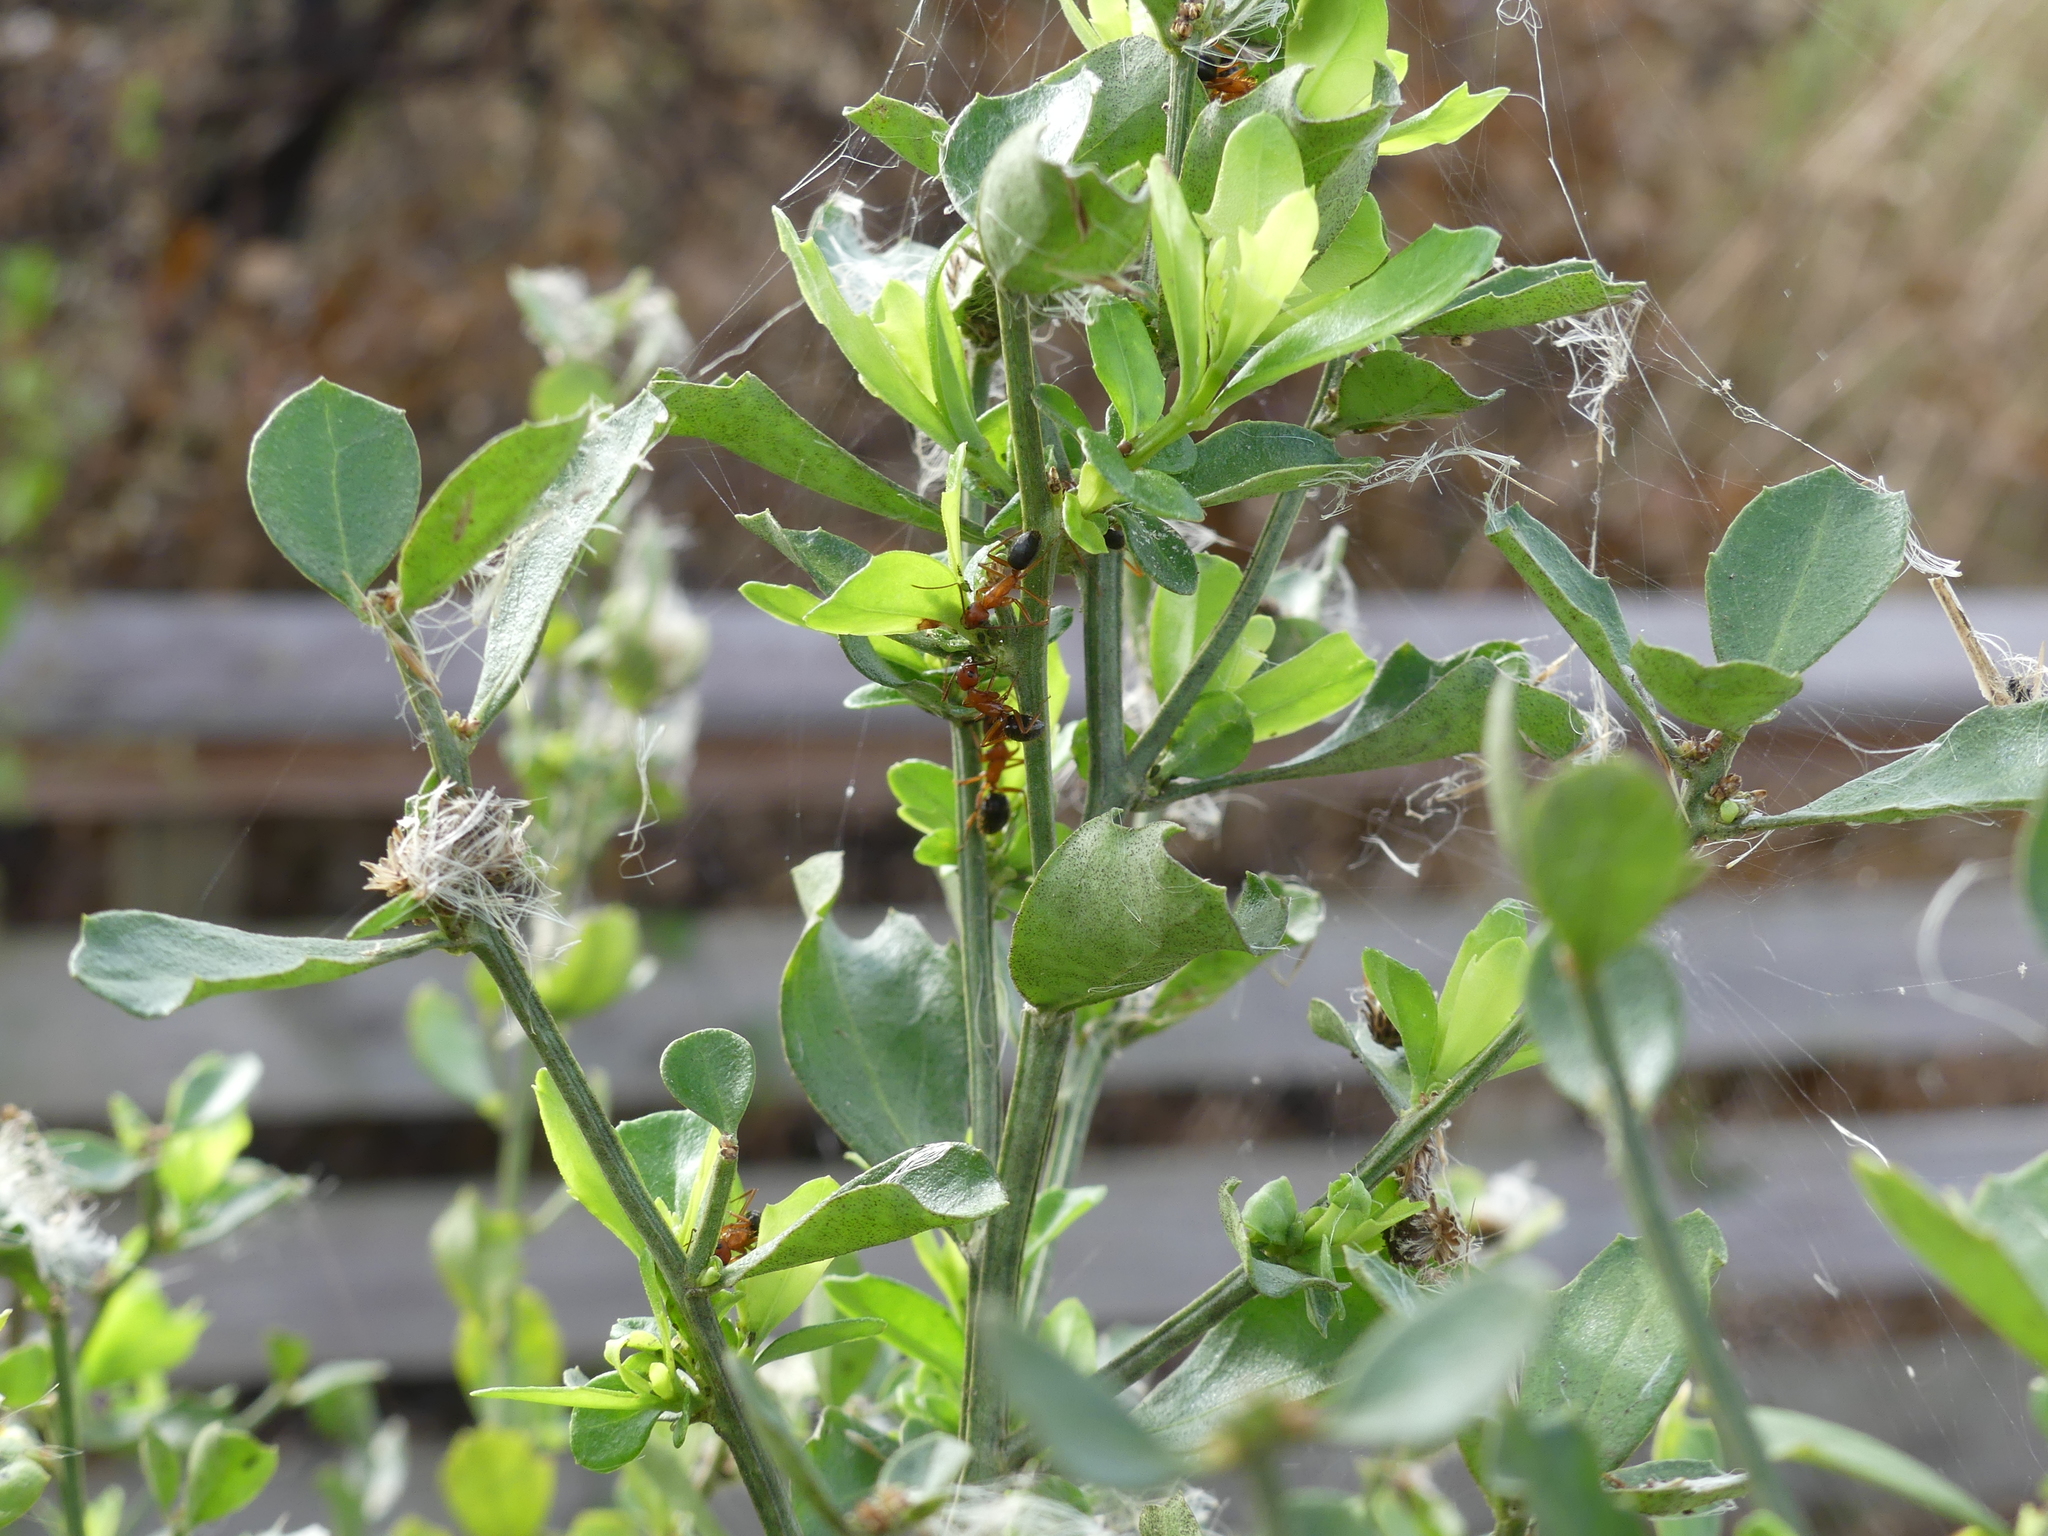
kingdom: Animalia
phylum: Arthropoda
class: Insecta
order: Hymenoptera
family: Formicidae
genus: Camponotus
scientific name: Camponotus floridanus
